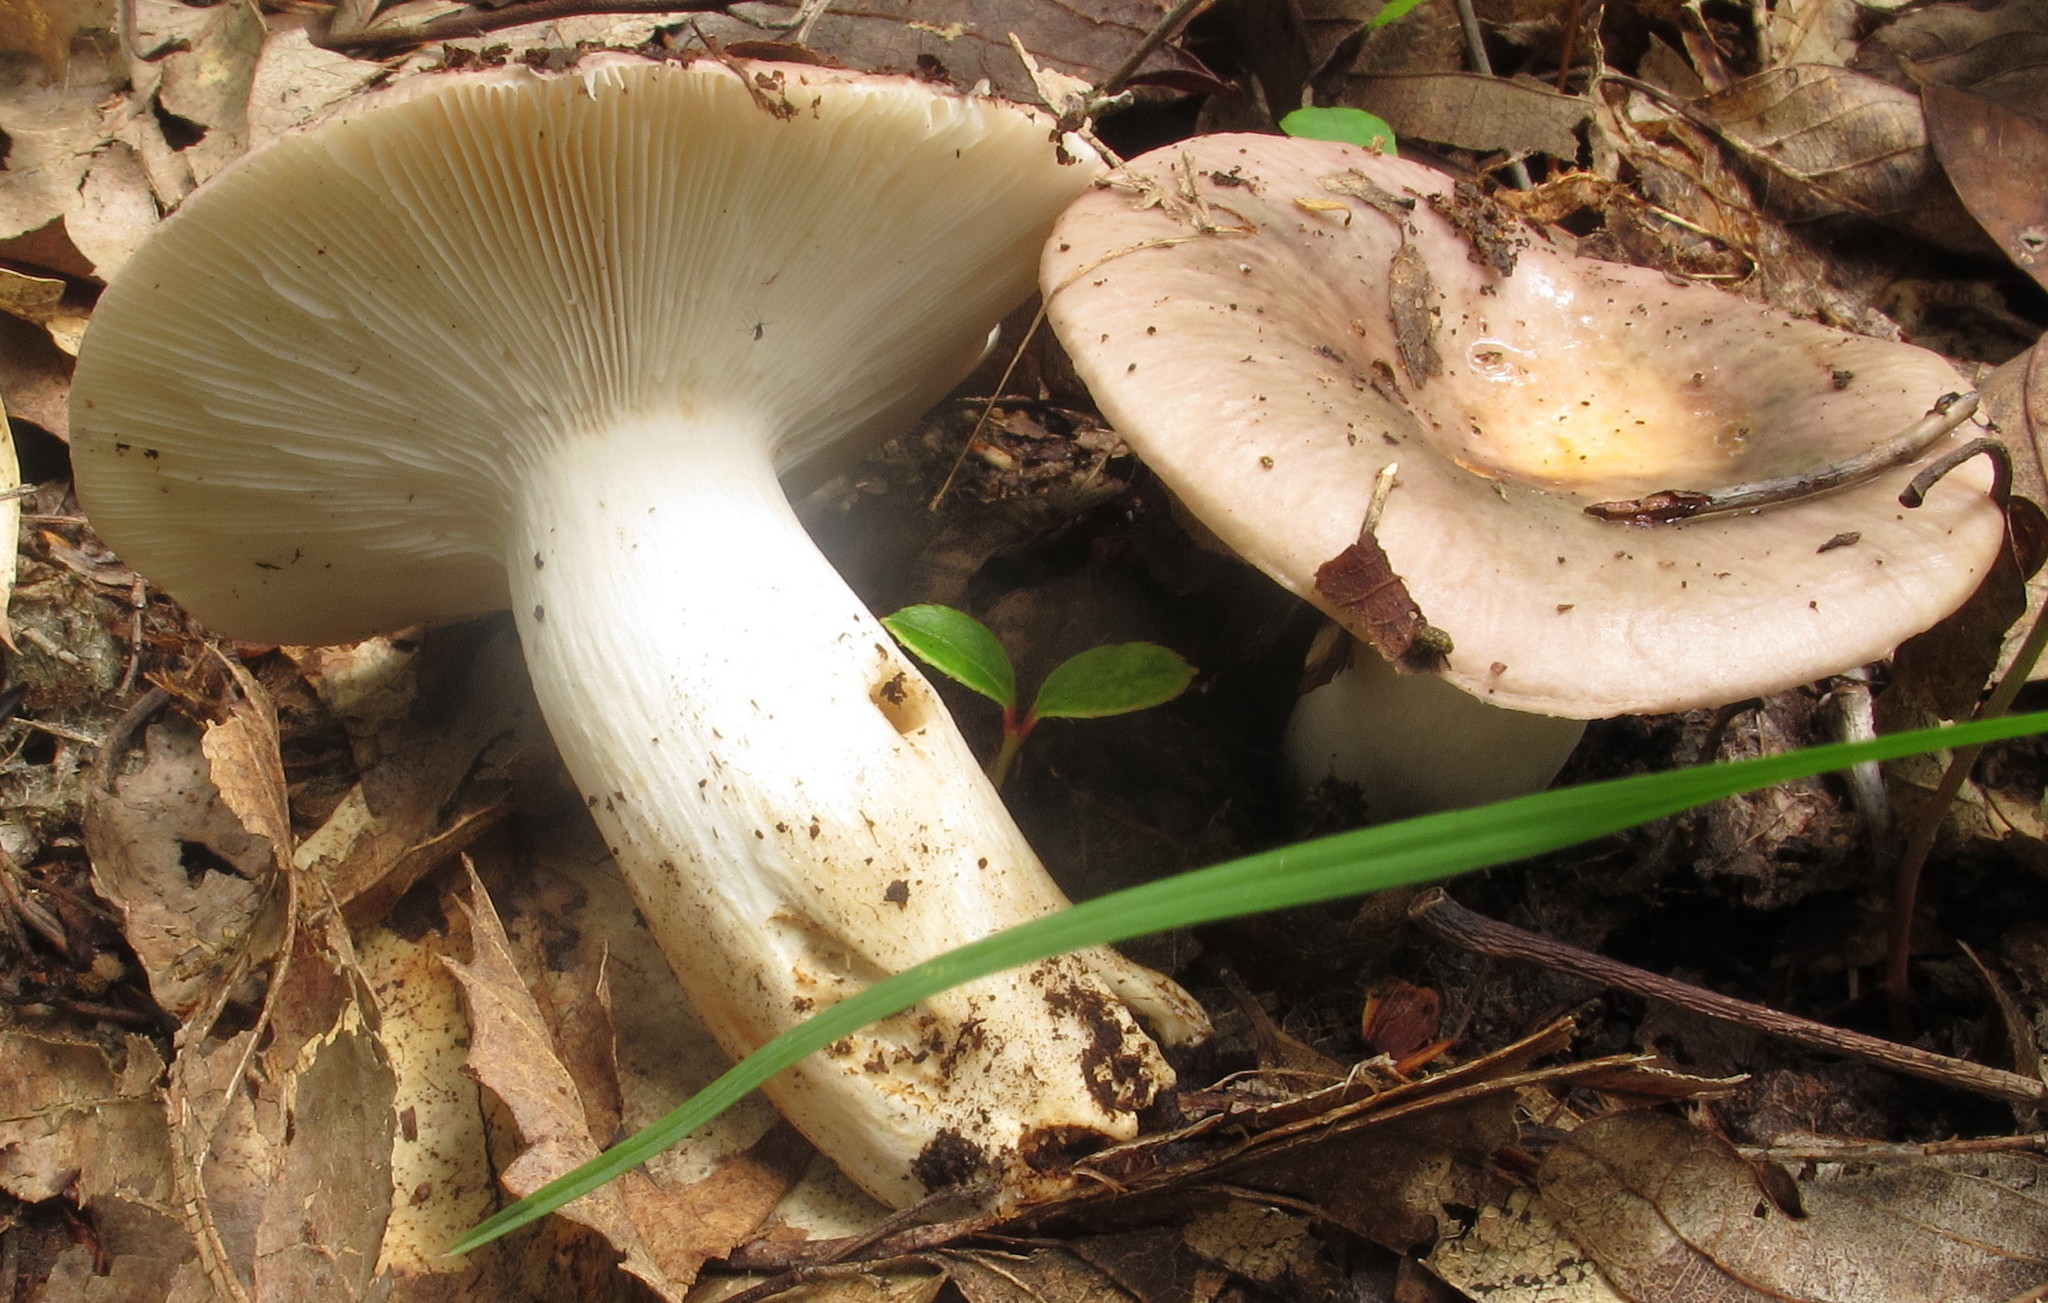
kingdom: Fungi
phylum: Basidiomycota
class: Agaricomycetes
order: Russulales
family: Russulaceae
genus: Russula
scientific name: Russula cyanoxantha
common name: Charcoal burner
